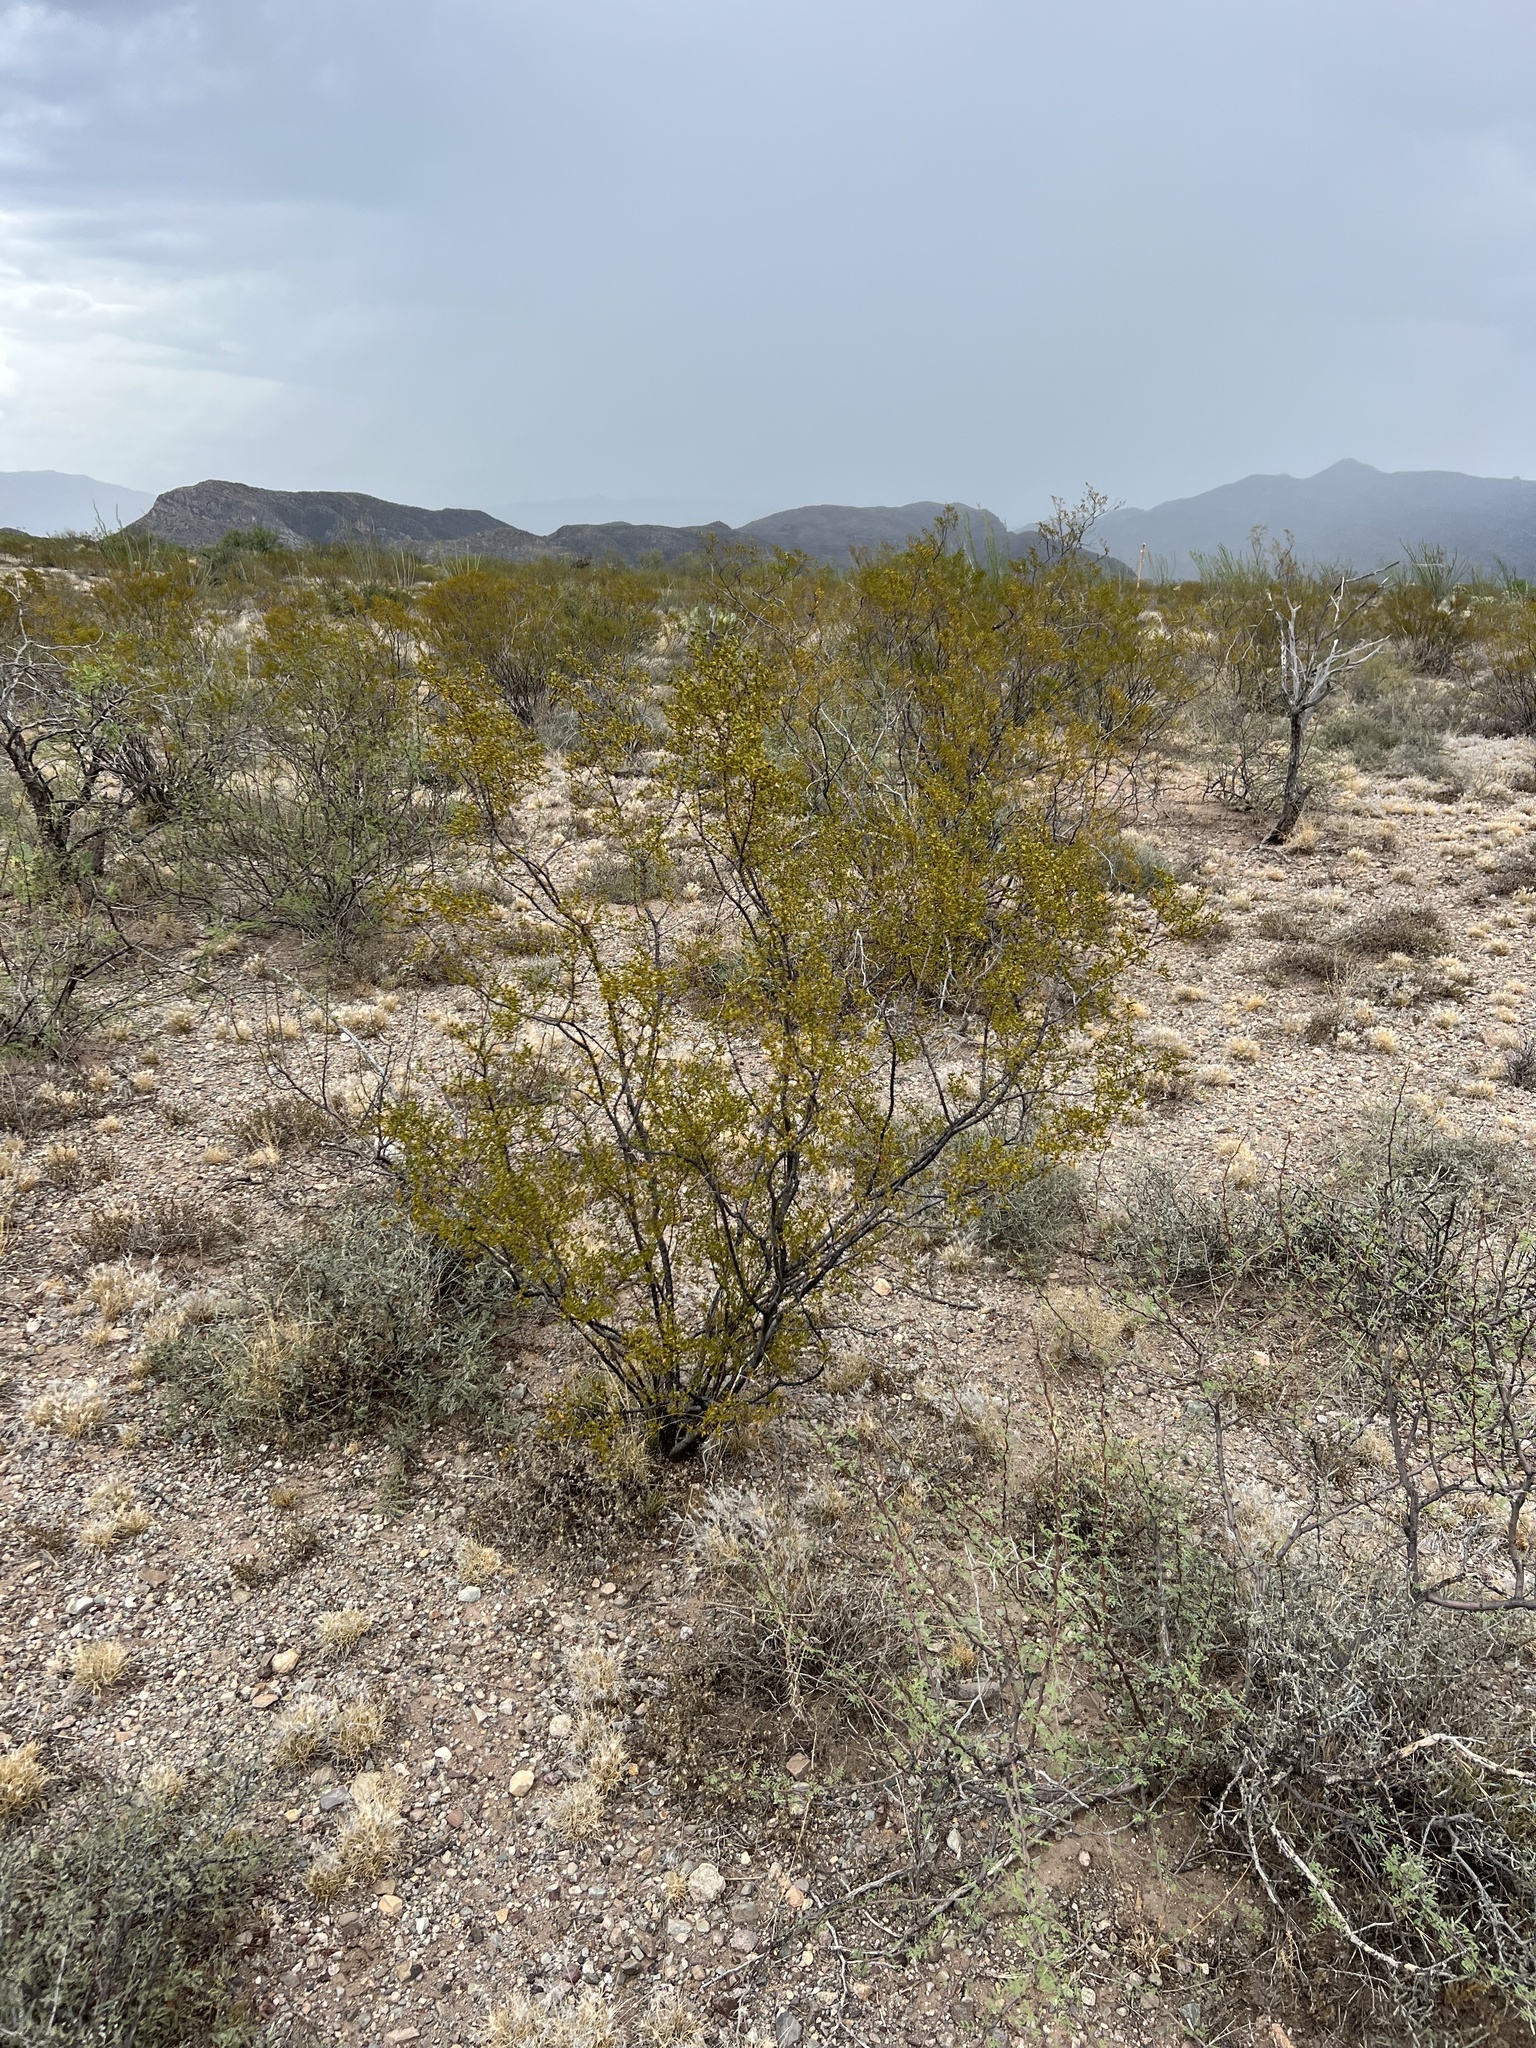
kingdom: Plantae
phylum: Tracheophyta
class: Magnoliopsida
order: Zygophyllales
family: Zygophyllaceae
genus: Larrea
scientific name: Larrea tridentata
